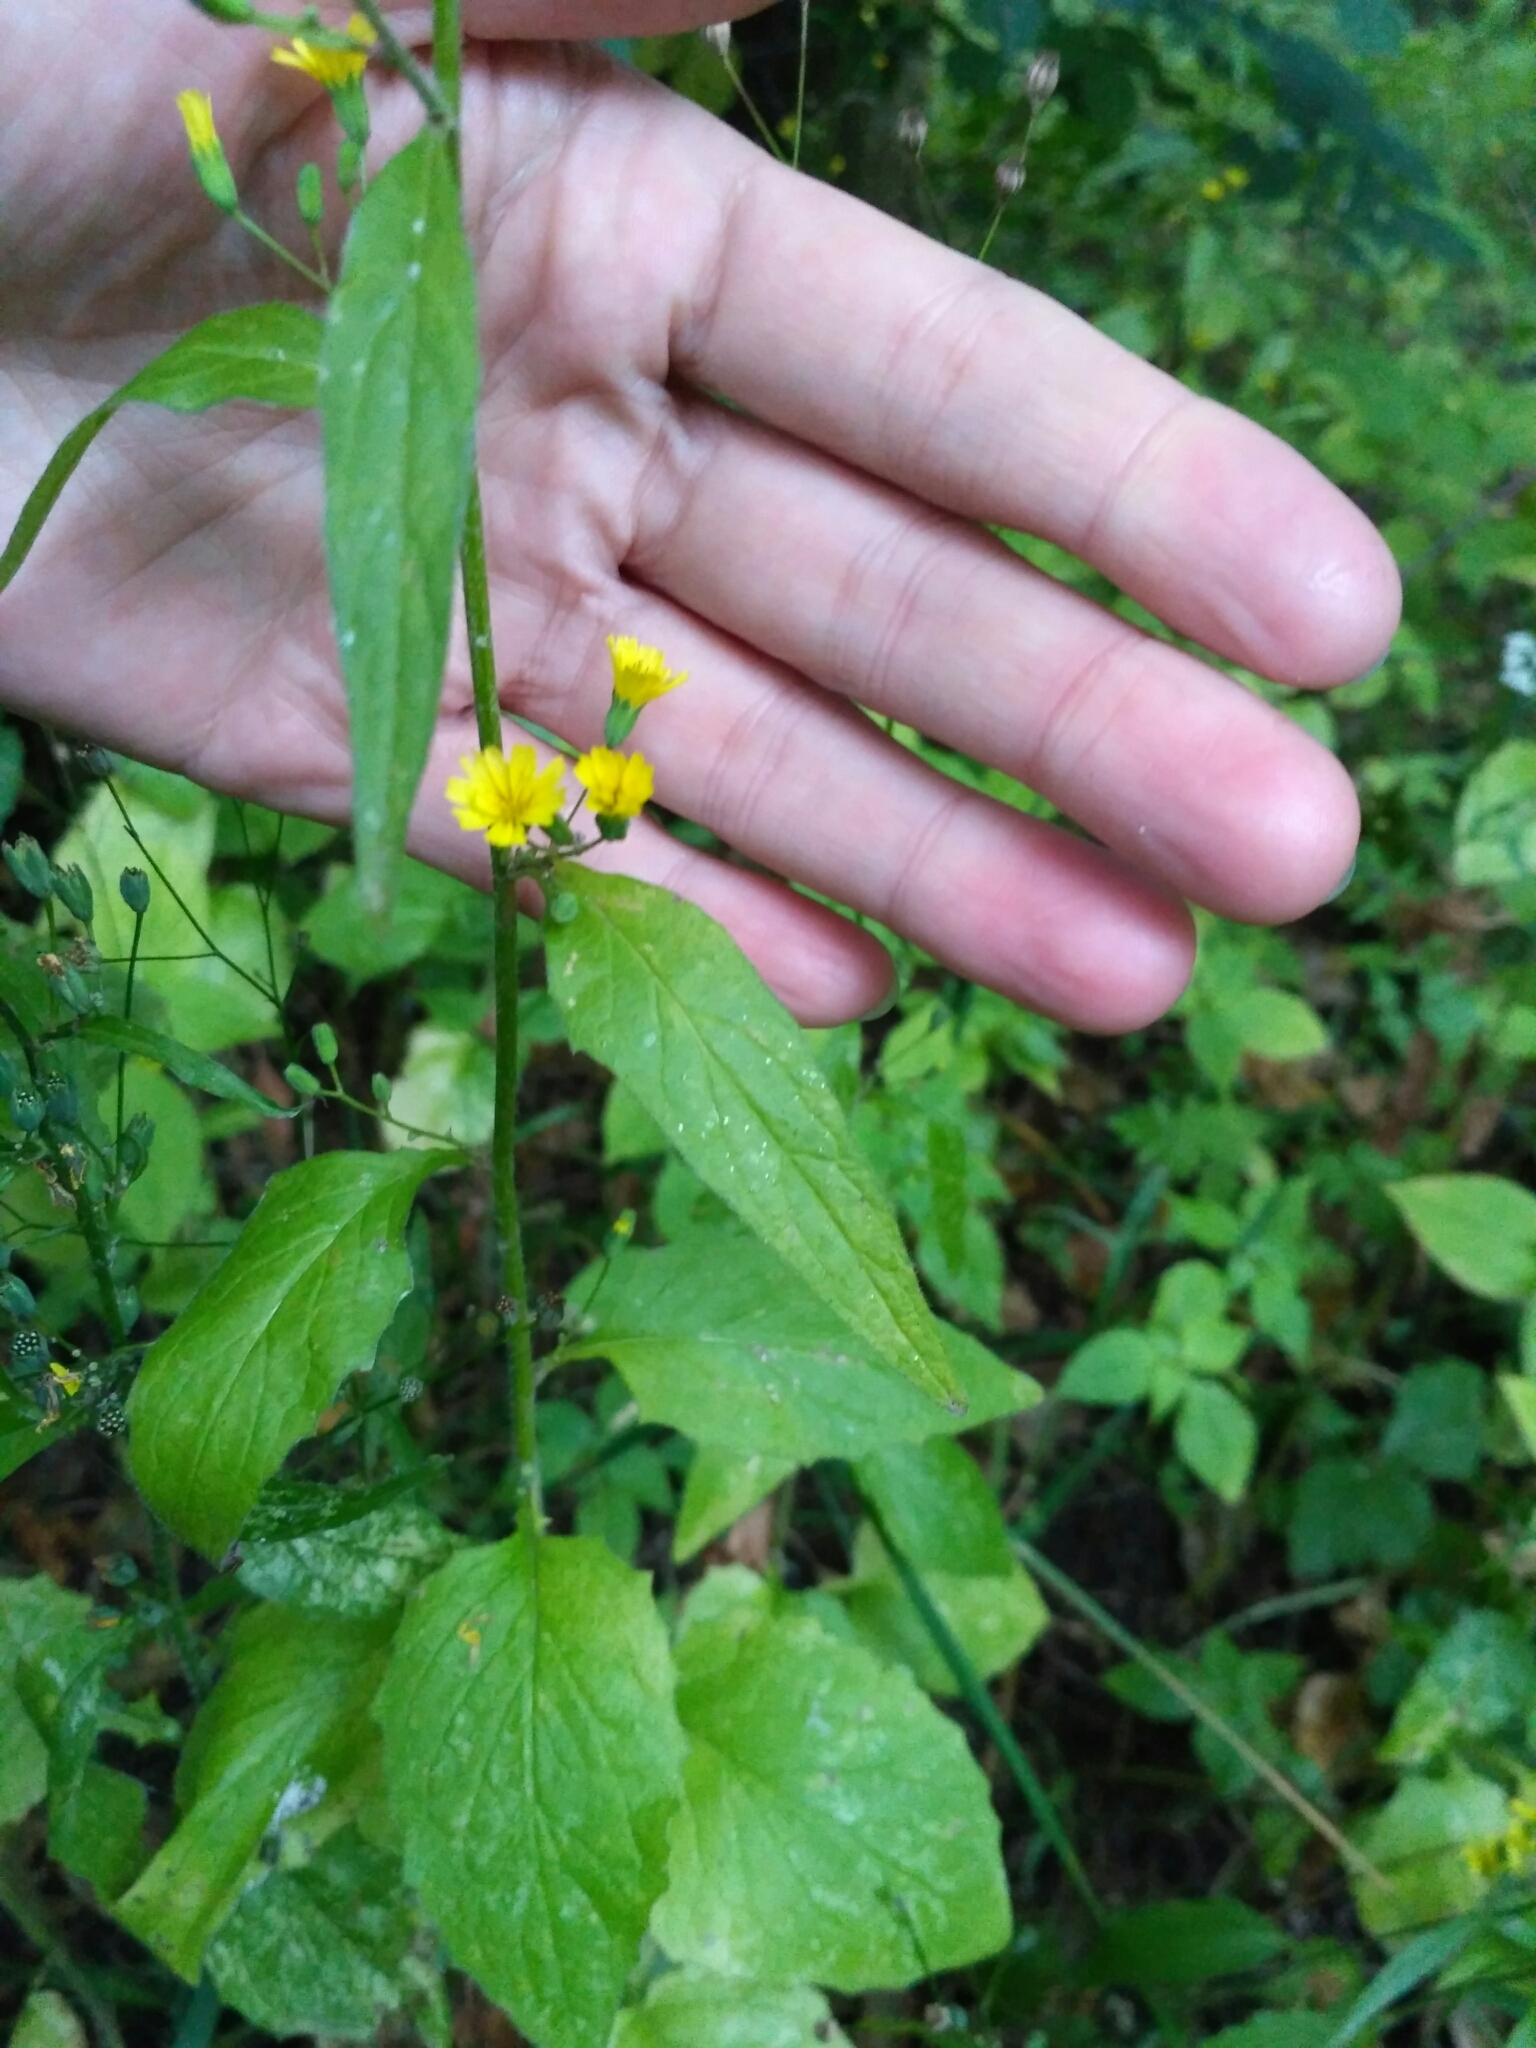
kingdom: Plantae
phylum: Tracheophyta
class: Magnoliopsida
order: Asterales
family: Asteraceae
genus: Lapsana
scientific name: Lapsana communis
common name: Nipplewort
